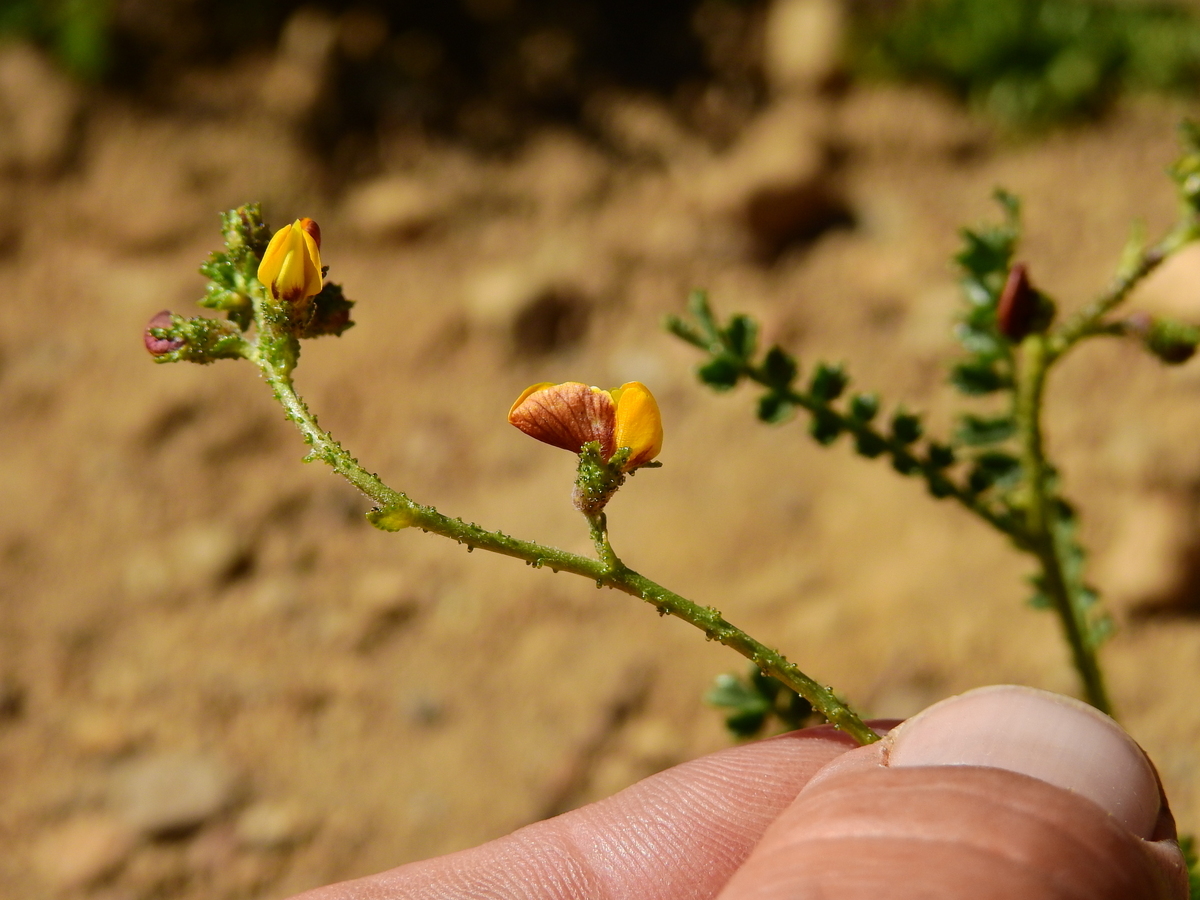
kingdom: Plantae
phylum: Tracheophyta
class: Magnoliopsida
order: Fabales
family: Fabaceae
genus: Adesmia
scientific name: Adesmia emarginata
